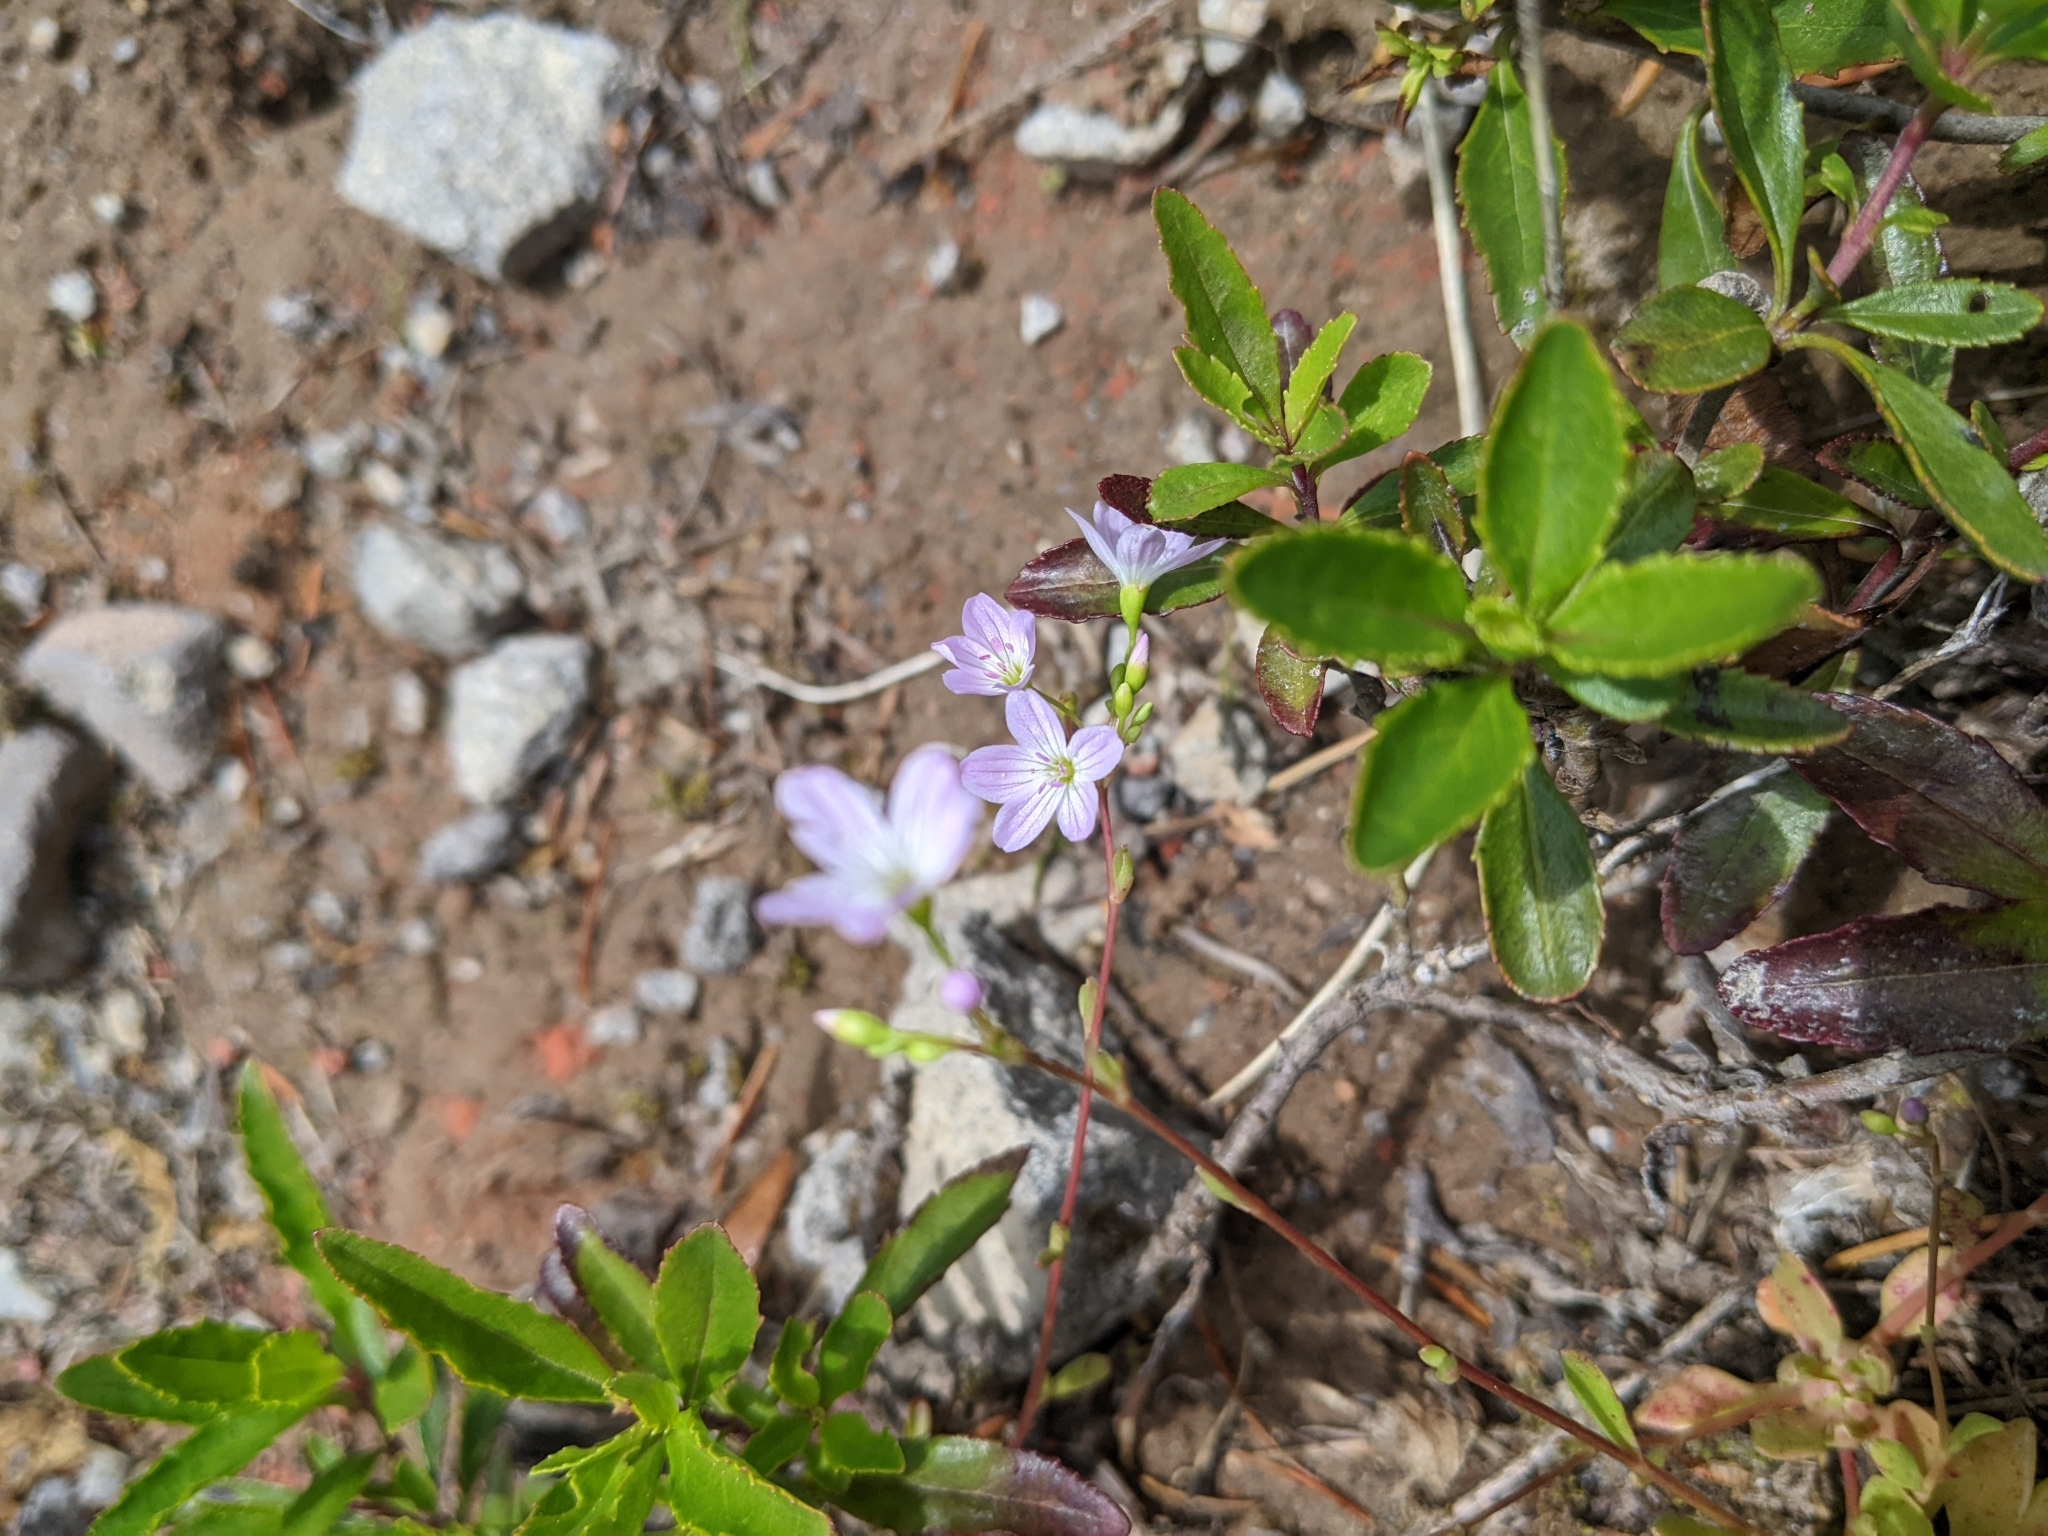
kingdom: Plantae
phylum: Tracheophyta
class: Magnoliopsida
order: Caryophyllales
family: Montiaceae
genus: Montia
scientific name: Montia parvifolia
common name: Small-leaved blinks
